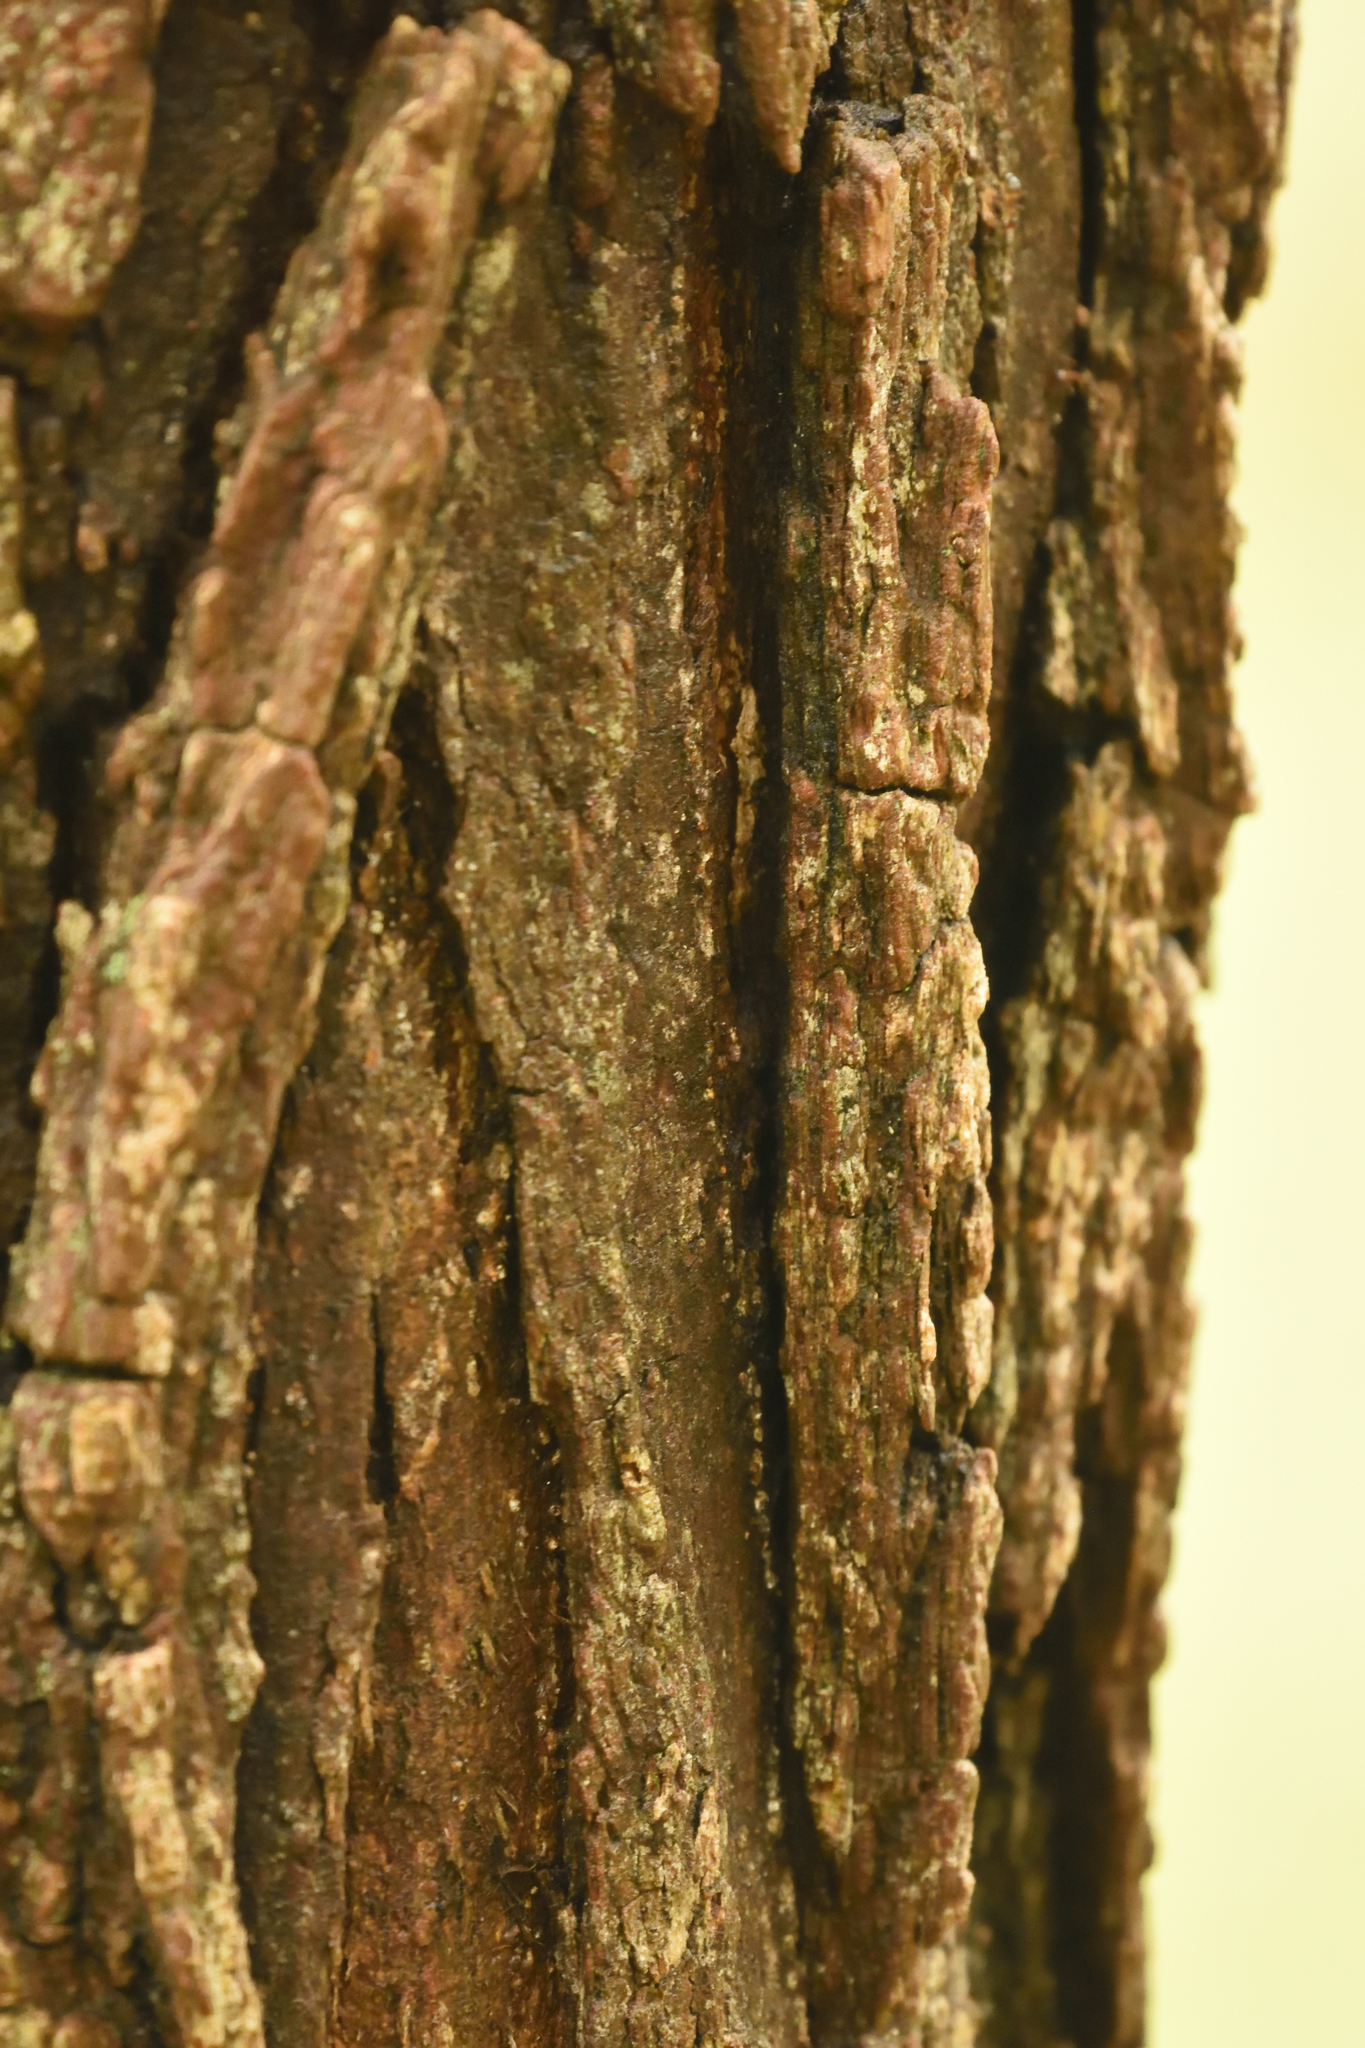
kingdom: Plantae
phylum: Tracheophyta
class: Magnoliopsida
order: Fabales
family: Fabaceae
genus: Robinia
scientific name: Robinia pseudoacacia
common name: Black locust
